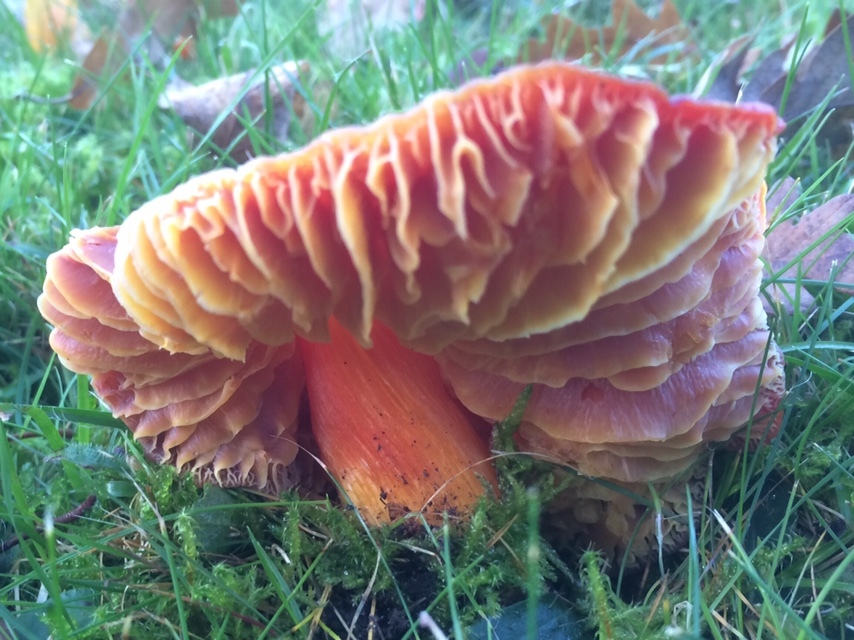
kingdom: Fungi
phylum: Basidiomycota
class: Agaricomycetes
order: Agaricales
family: Hygrophoraceae
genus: Hygrocybe
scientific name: Hygrocybe punicea
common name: Crimson waxcap
